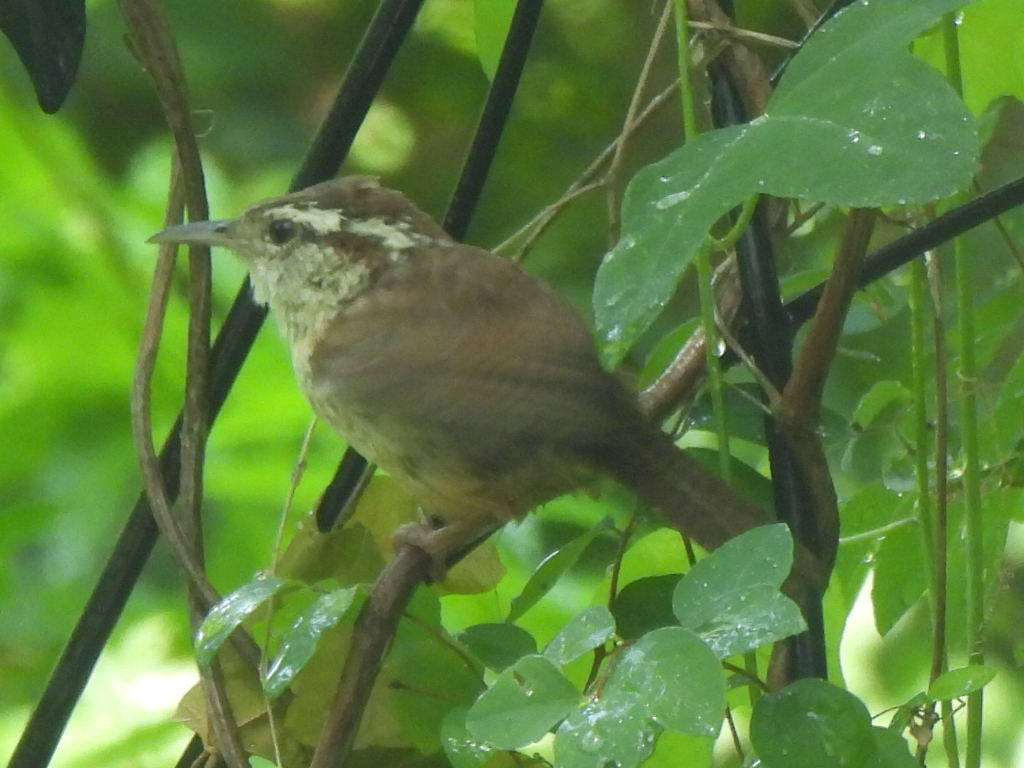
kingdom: Animalia
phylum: Chordata
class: Aves
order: Passeriformes
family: Troglodytidae
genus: Thryothorus
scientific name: Thryothorus ludovicianus
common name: Carolina wren
